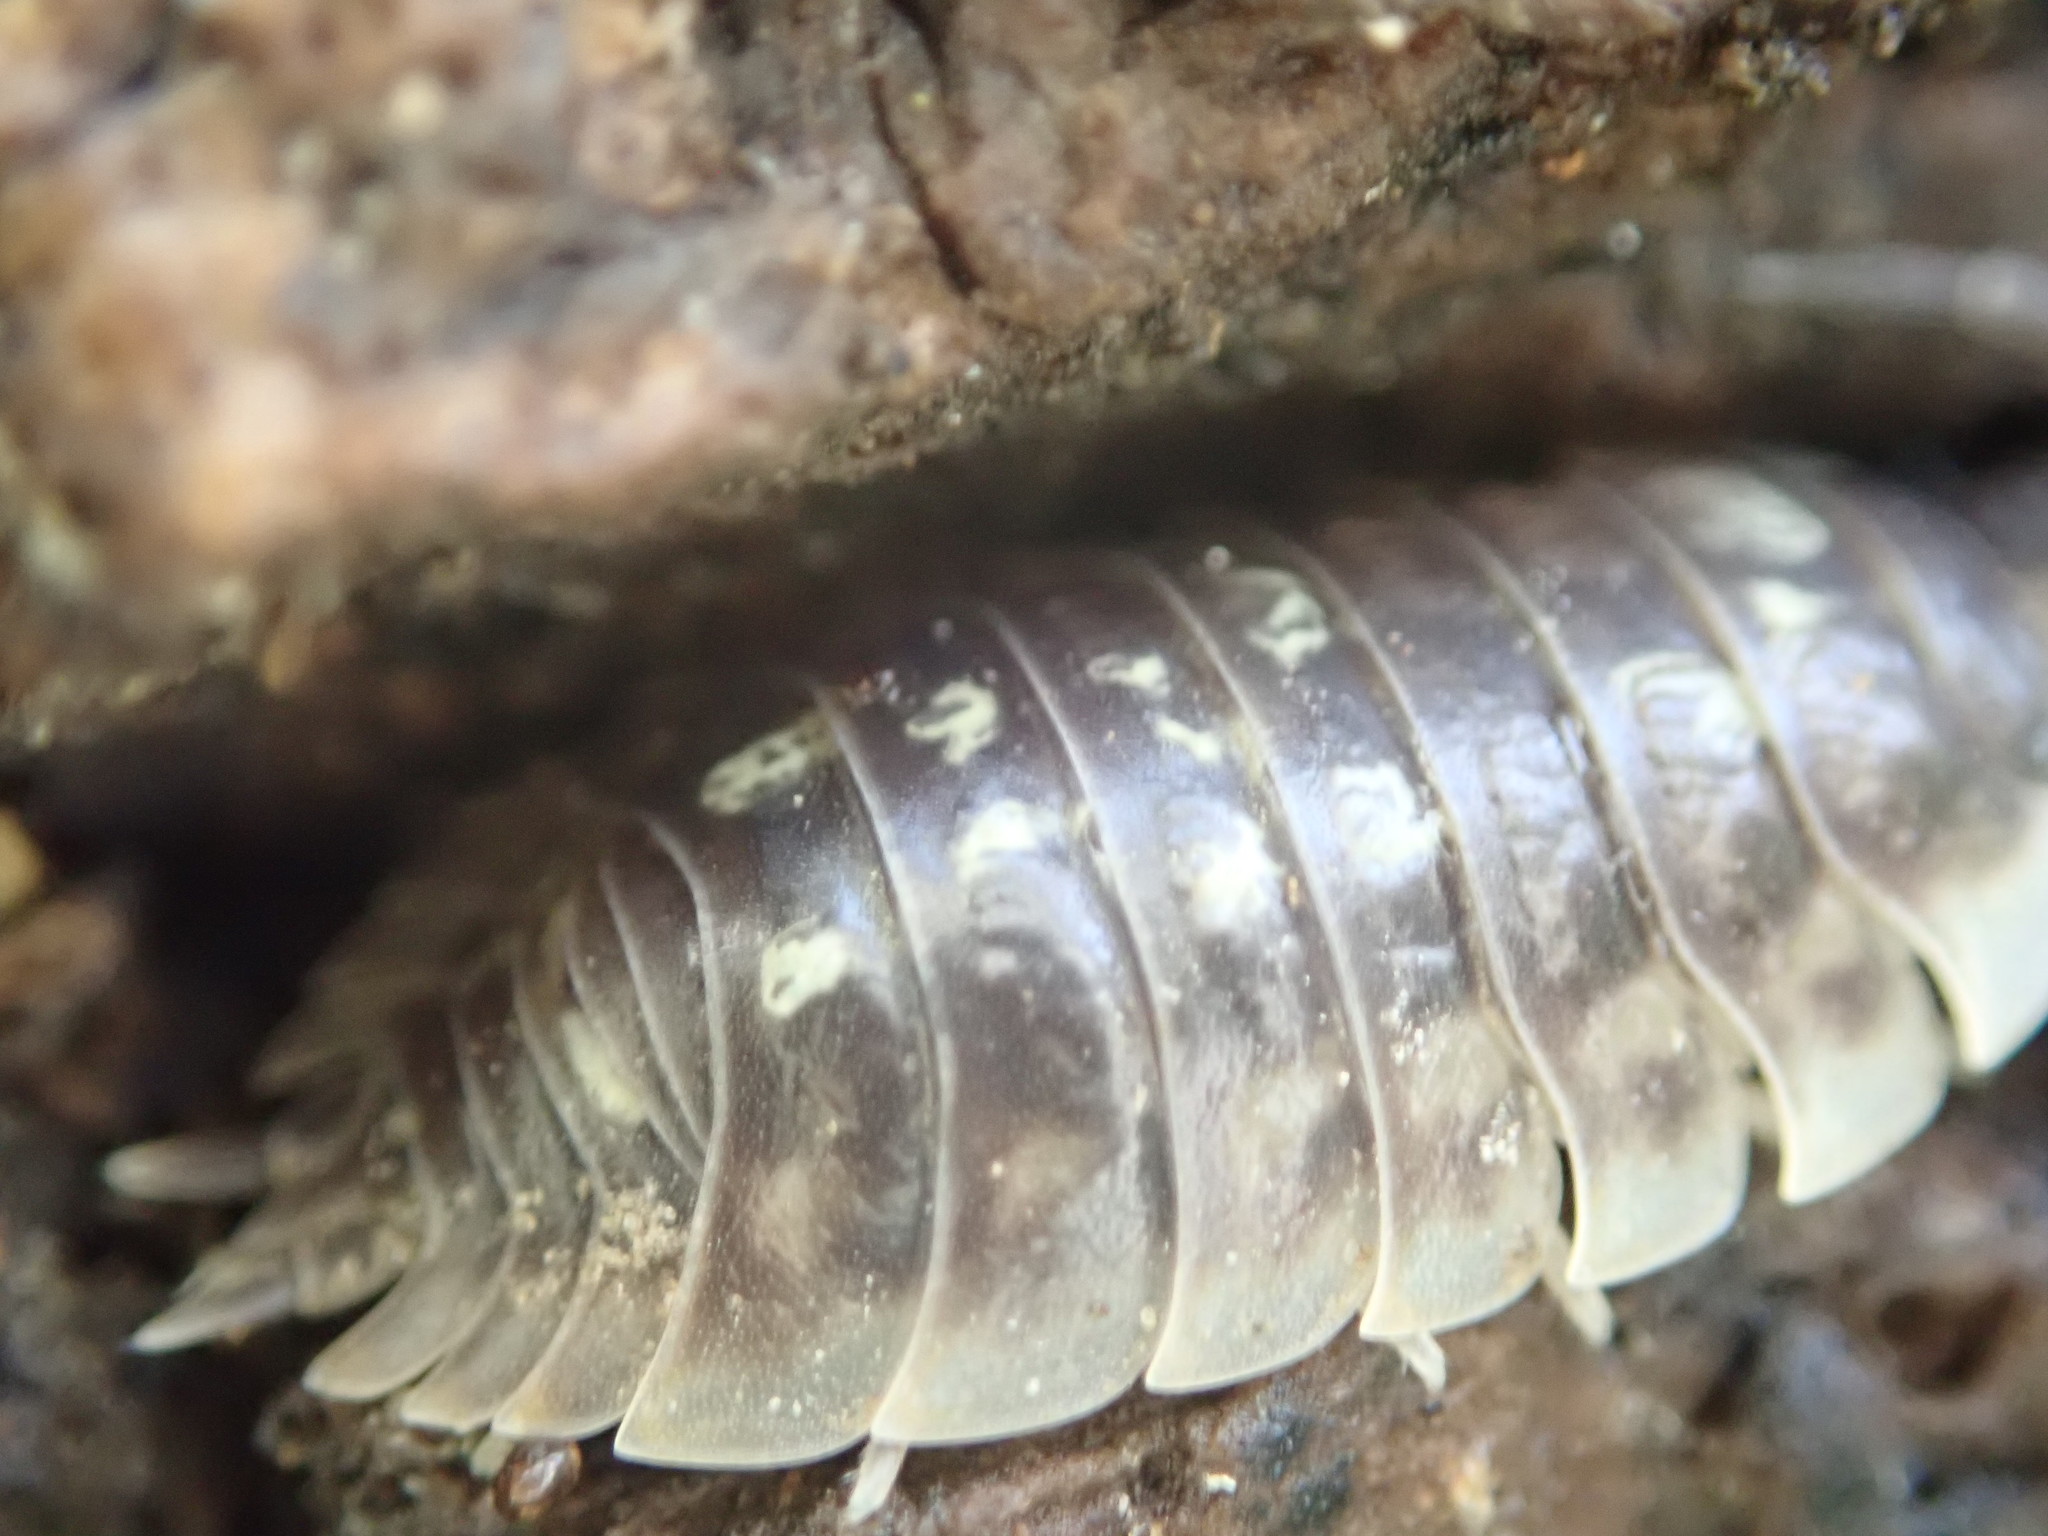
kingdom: Animalia
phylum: Arthropoda
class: Malacostraca
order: Isopoda
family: Oniscidae
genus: Oniscus
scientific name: Oniscus asellus
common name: Common shiny woodlouse
